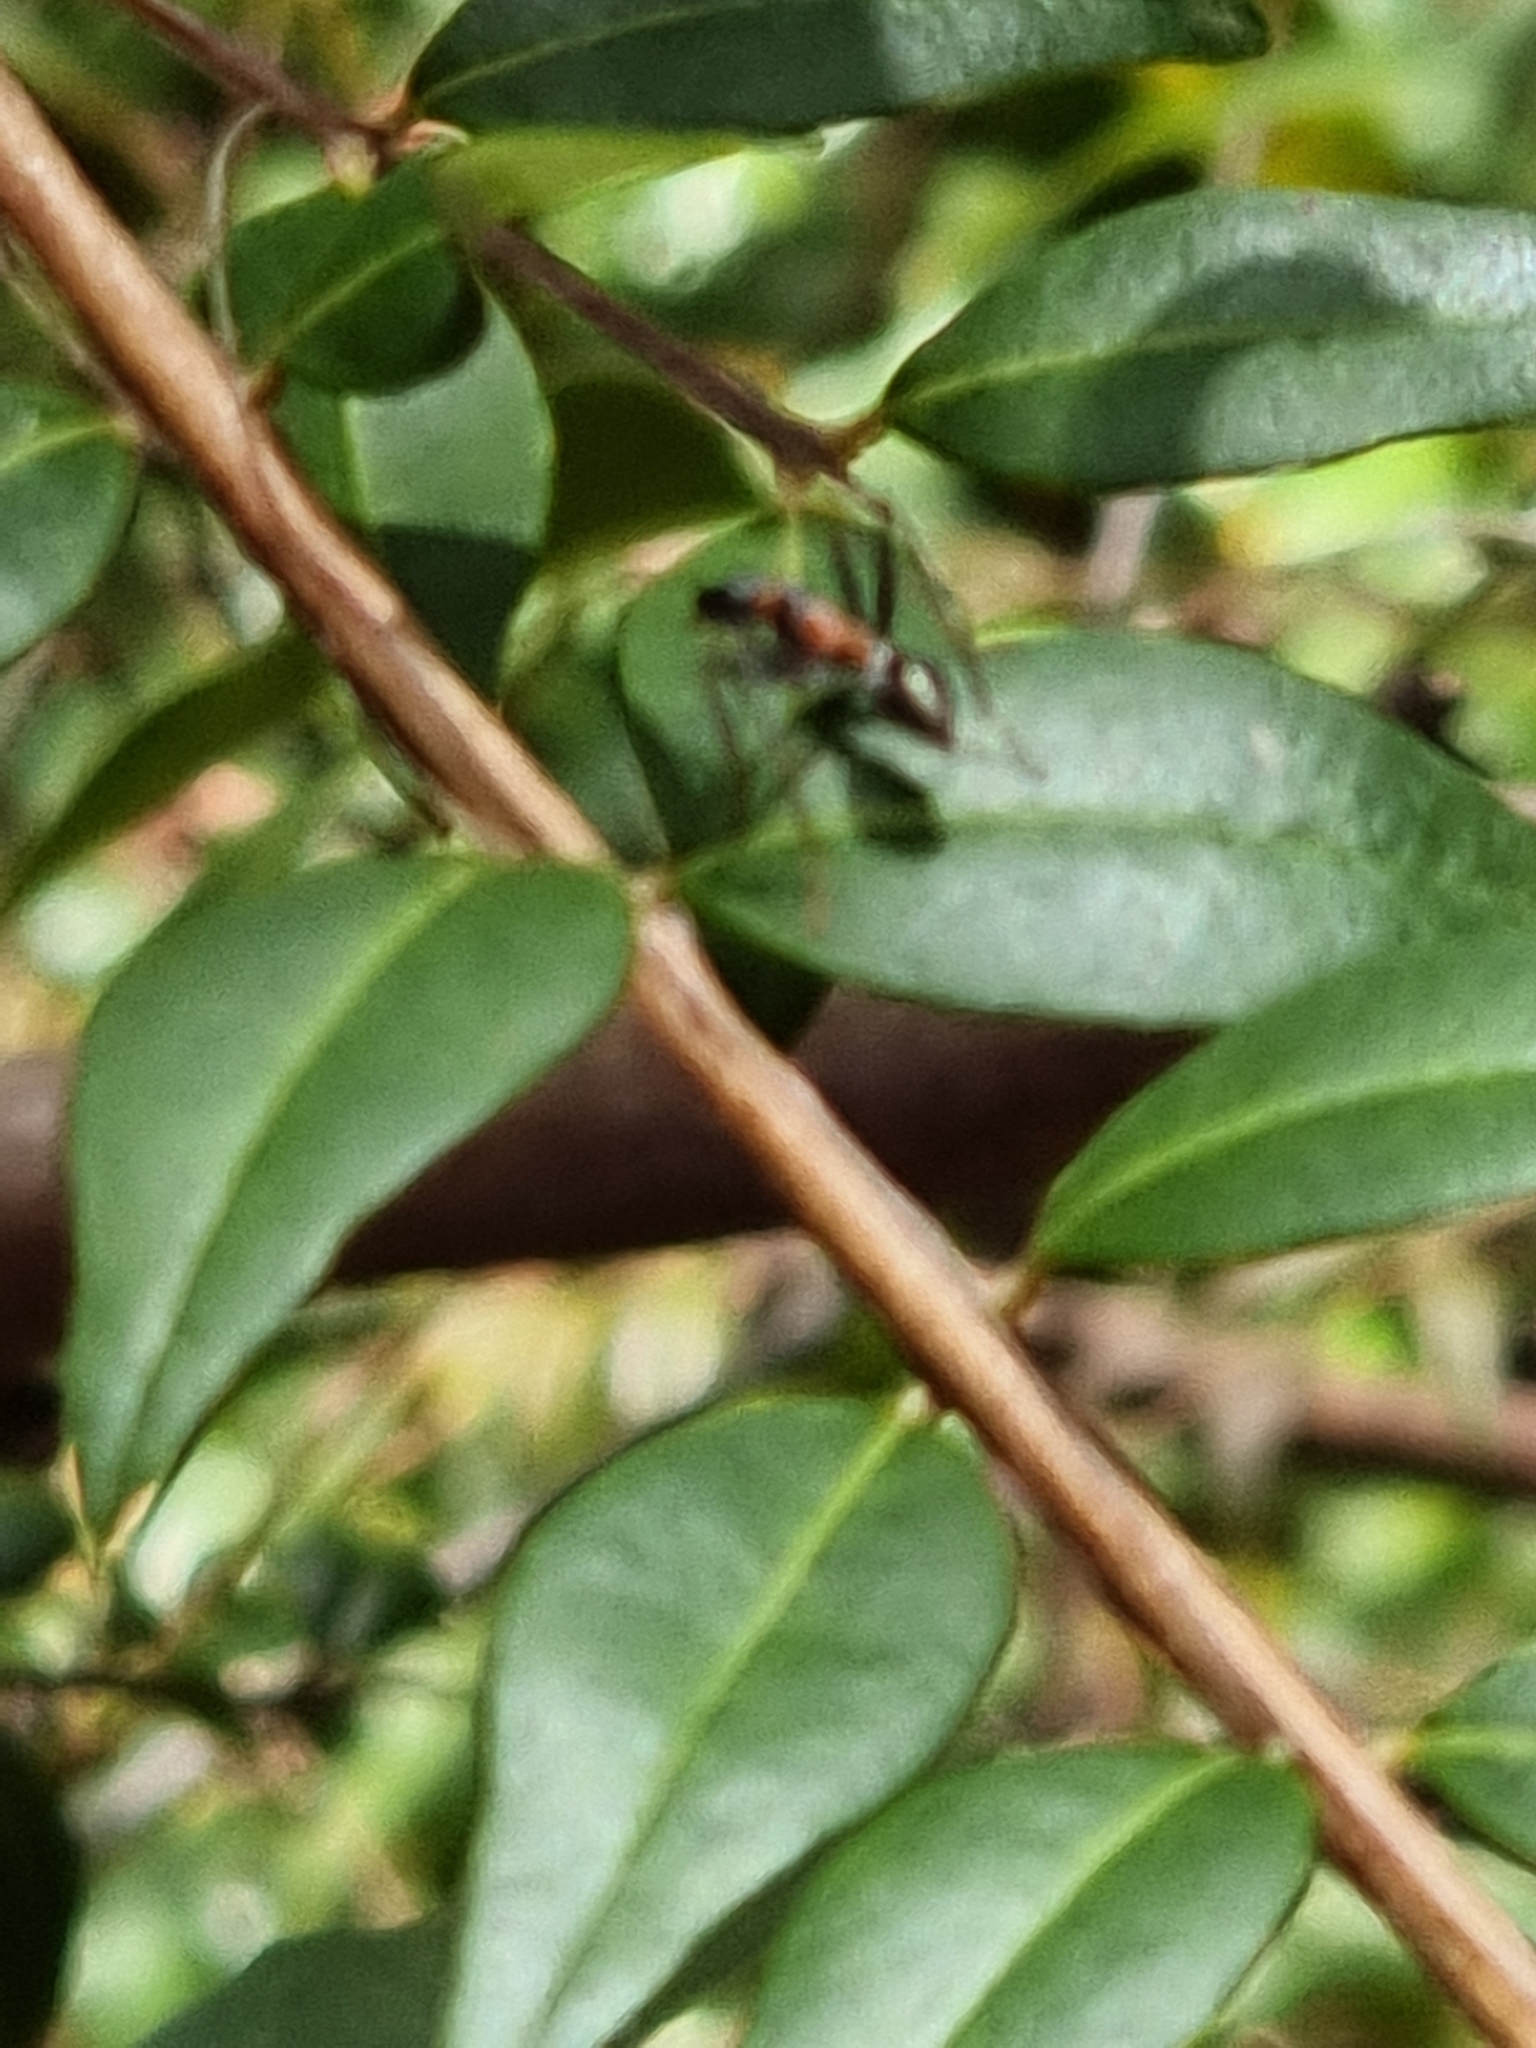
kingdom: Animalia
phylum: Arthropoda
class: Insecta
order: Hymenoptera
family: Formicidae
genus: Myrmecia
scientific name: Myrmecia nigrocincta
